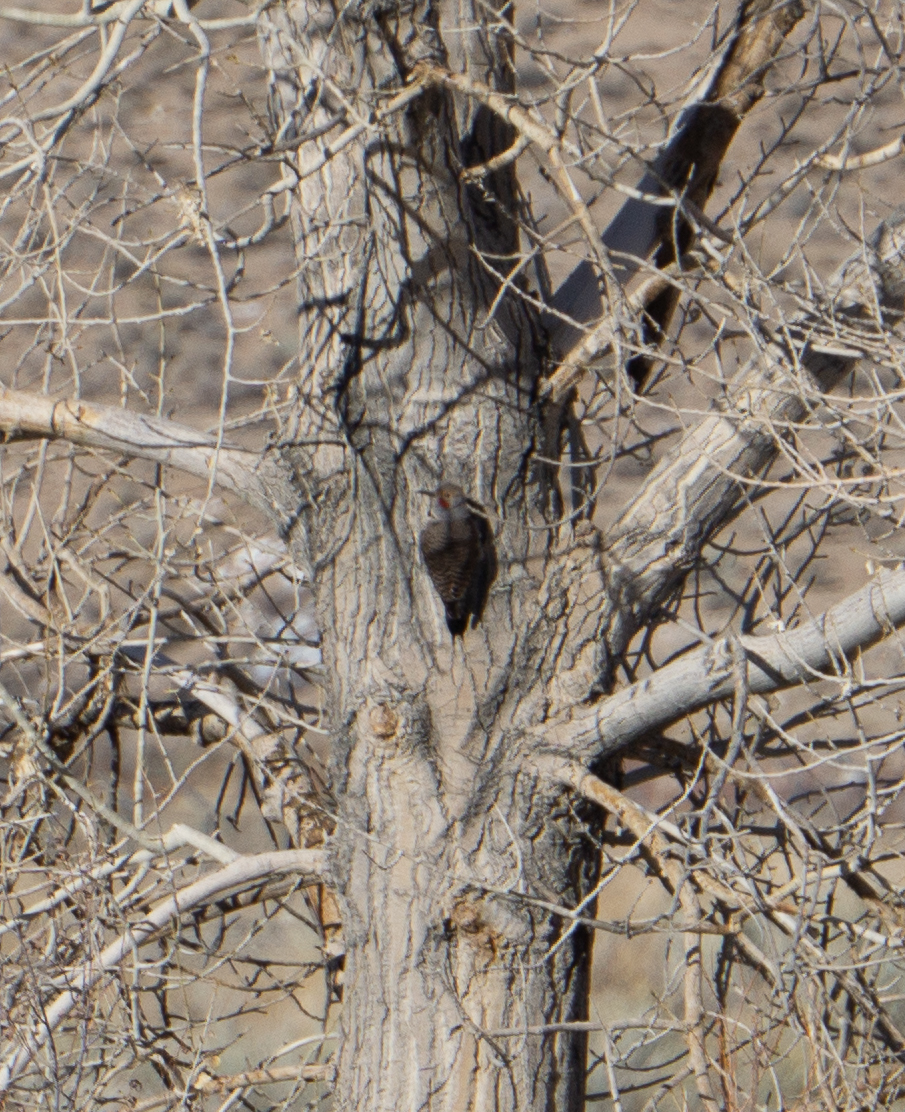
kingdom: Animalia
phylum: Chordata
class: Aves
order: Piciformes
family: Picidae
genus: Colaptes
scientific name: Colaptes auratus
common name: Northern flicker
